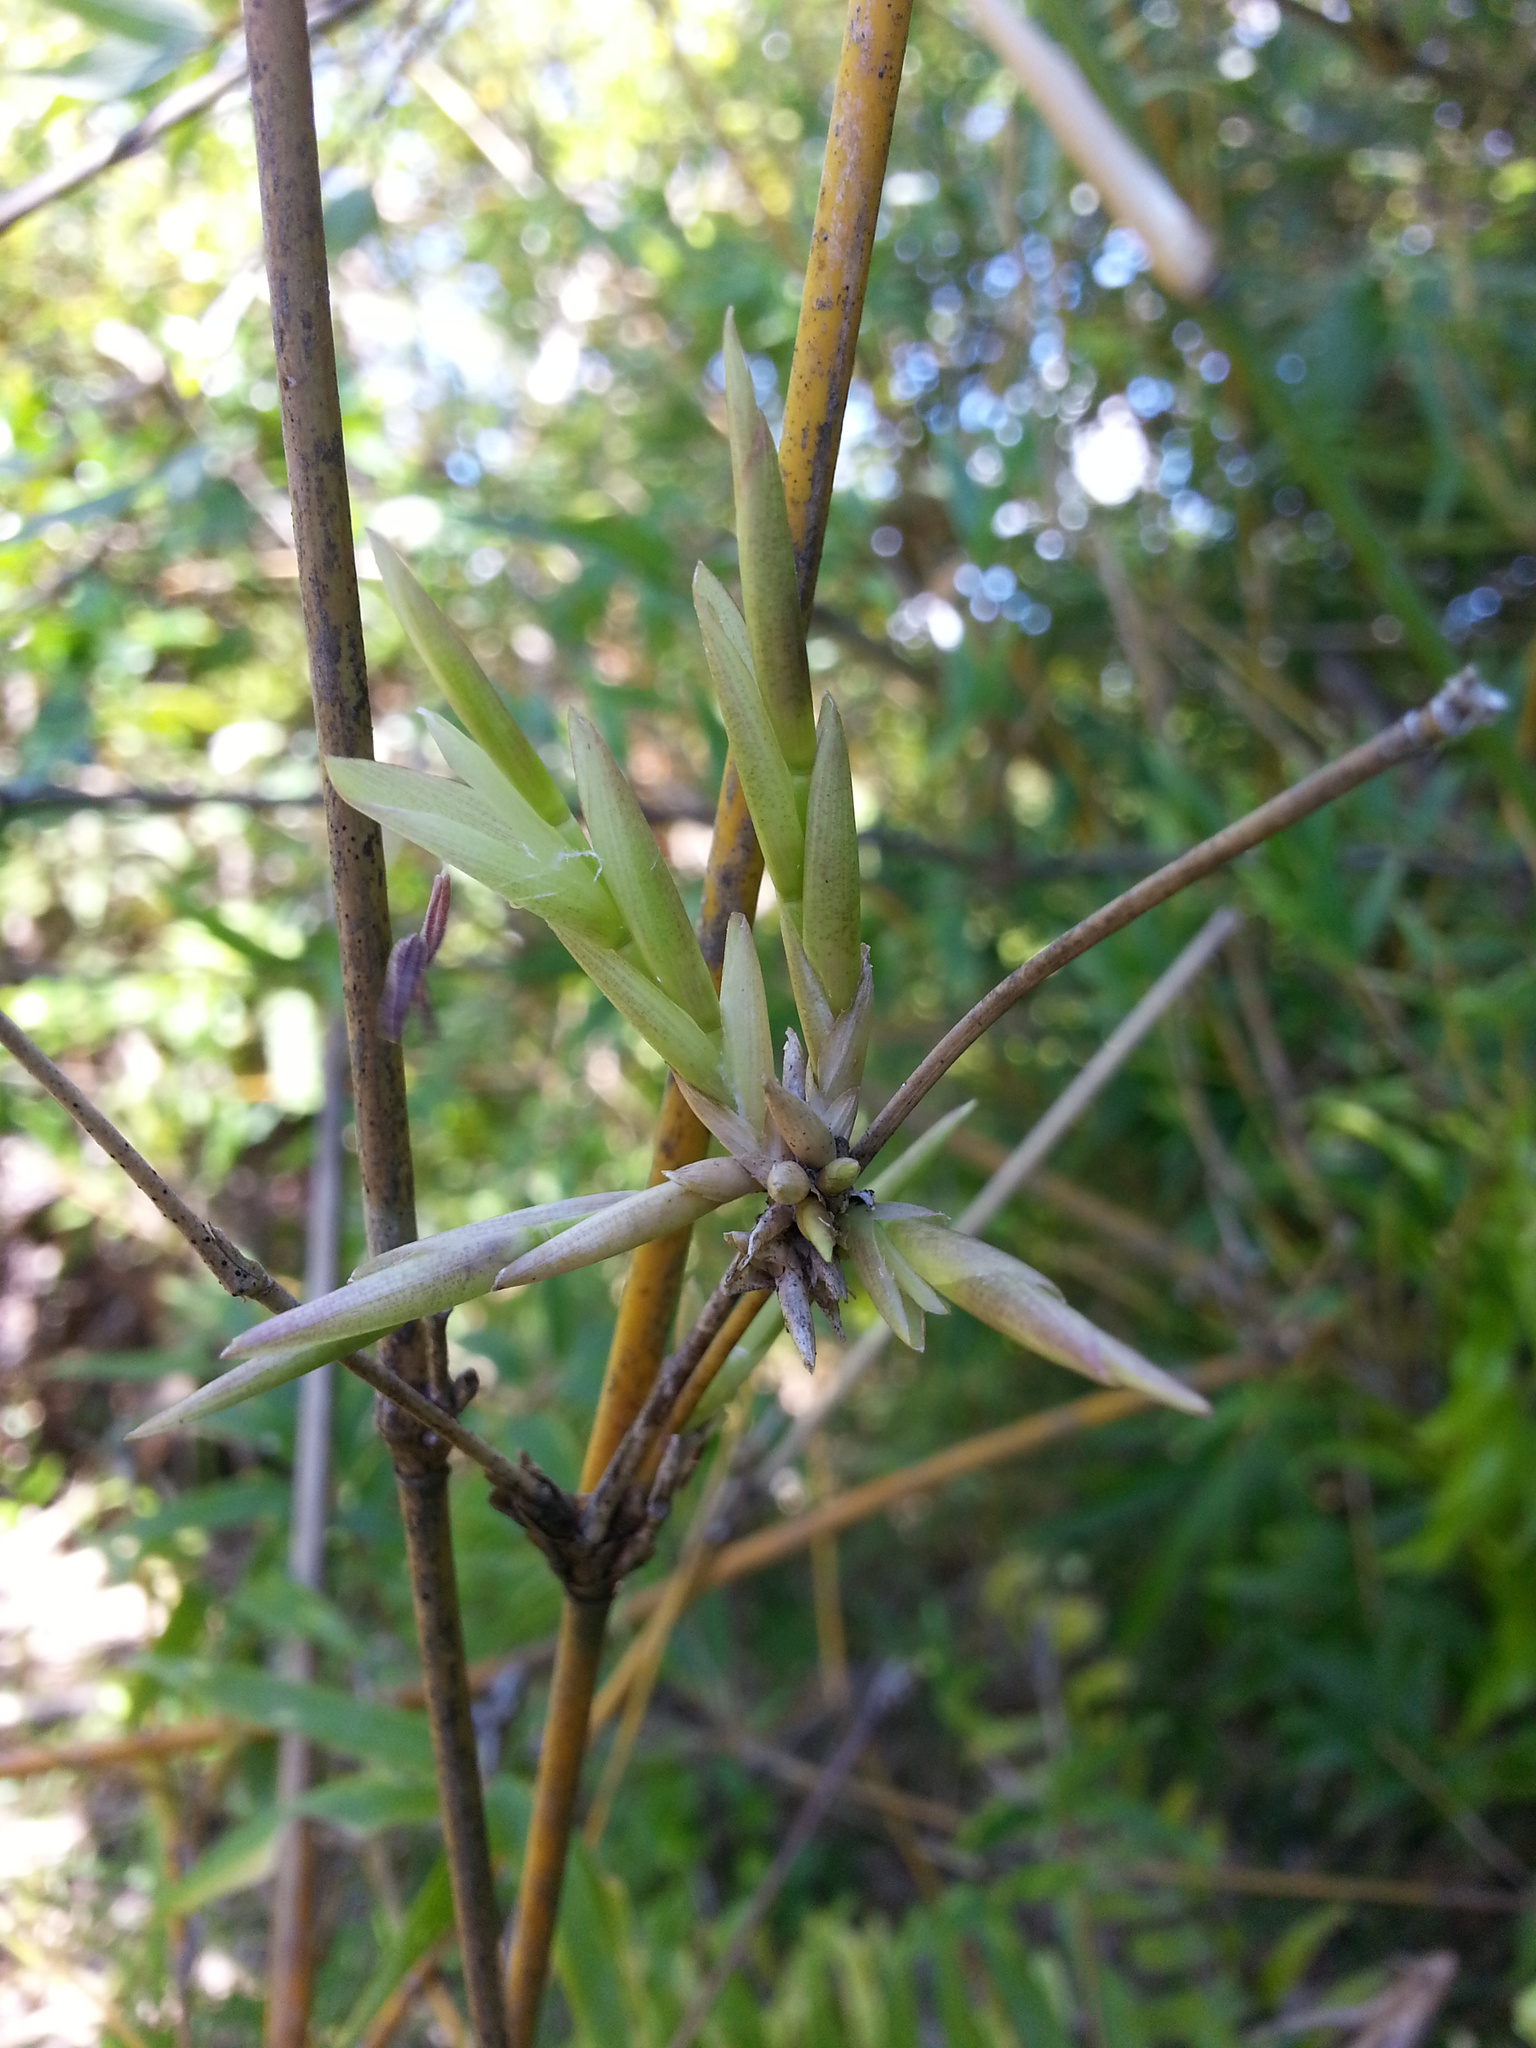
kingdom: Plantae
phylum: Tracheophyta
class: Liliopsida
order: Poales
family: Poaceae
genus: Bambusa
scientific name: Bambusa multiplex
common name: Hedge bamboo
